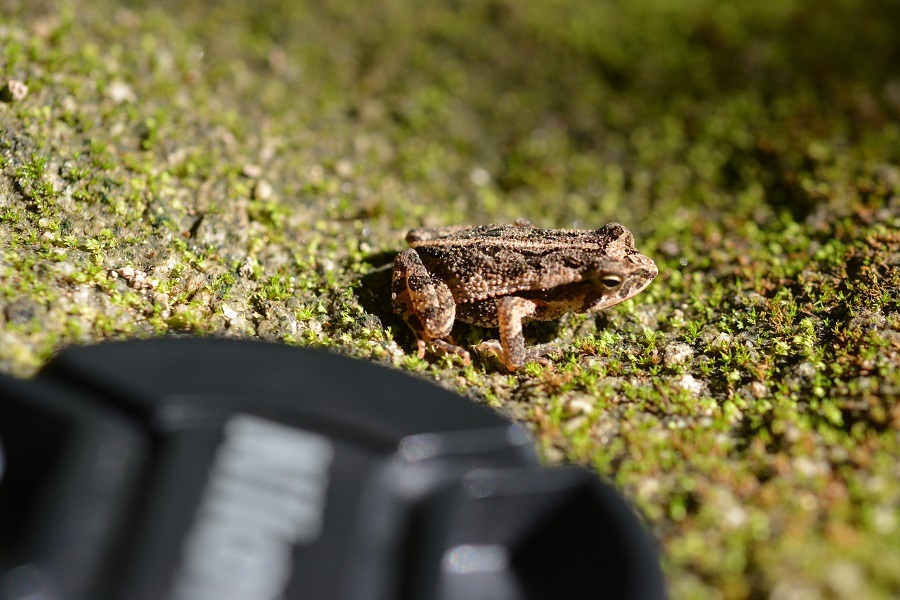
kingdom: Animalia
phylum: Chordata
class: Amphibia
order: Anura
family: Bufonidae
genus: Incilius
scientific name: Incilius canaliferus
